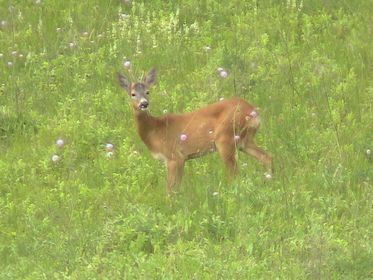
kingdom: Animalia
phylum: Chordata
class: Mammalia
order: Artiodactyla
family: Cervidae
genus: Capreolus
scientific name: Capreolus capreolus
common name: Western roe deer
